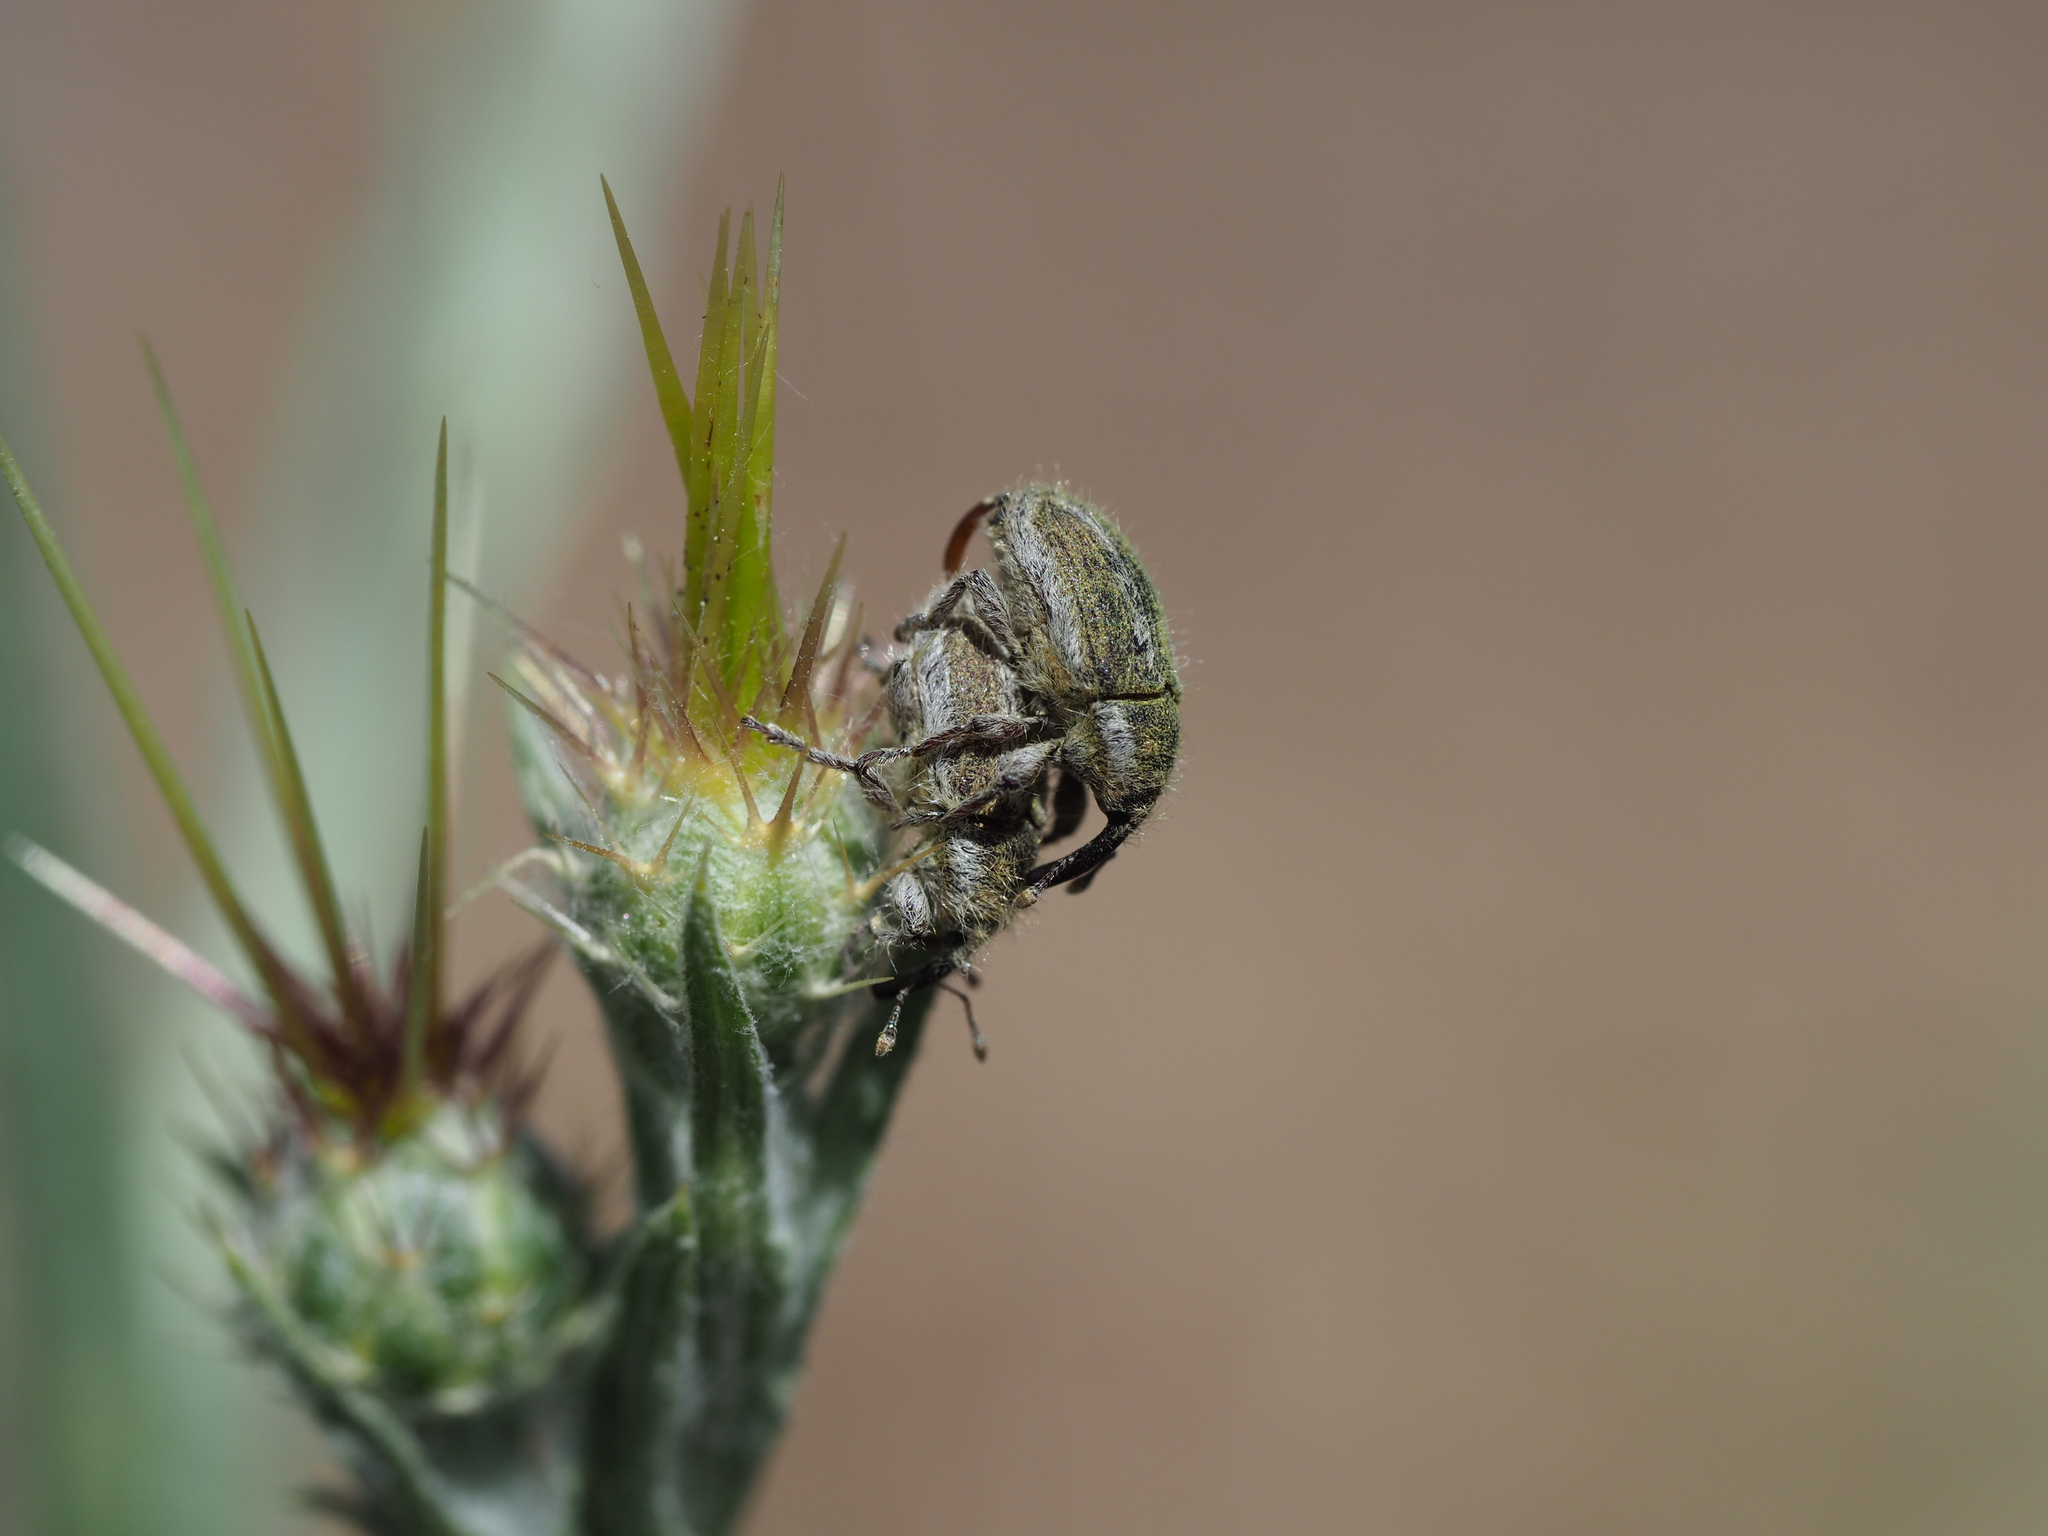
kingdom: Animalia
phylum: Arthropoda
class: Insecta
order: Coleoptera
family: Curculionidae
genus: Larinus
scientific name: Larinus villosus
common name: Yellow starthistle hairy weevil
